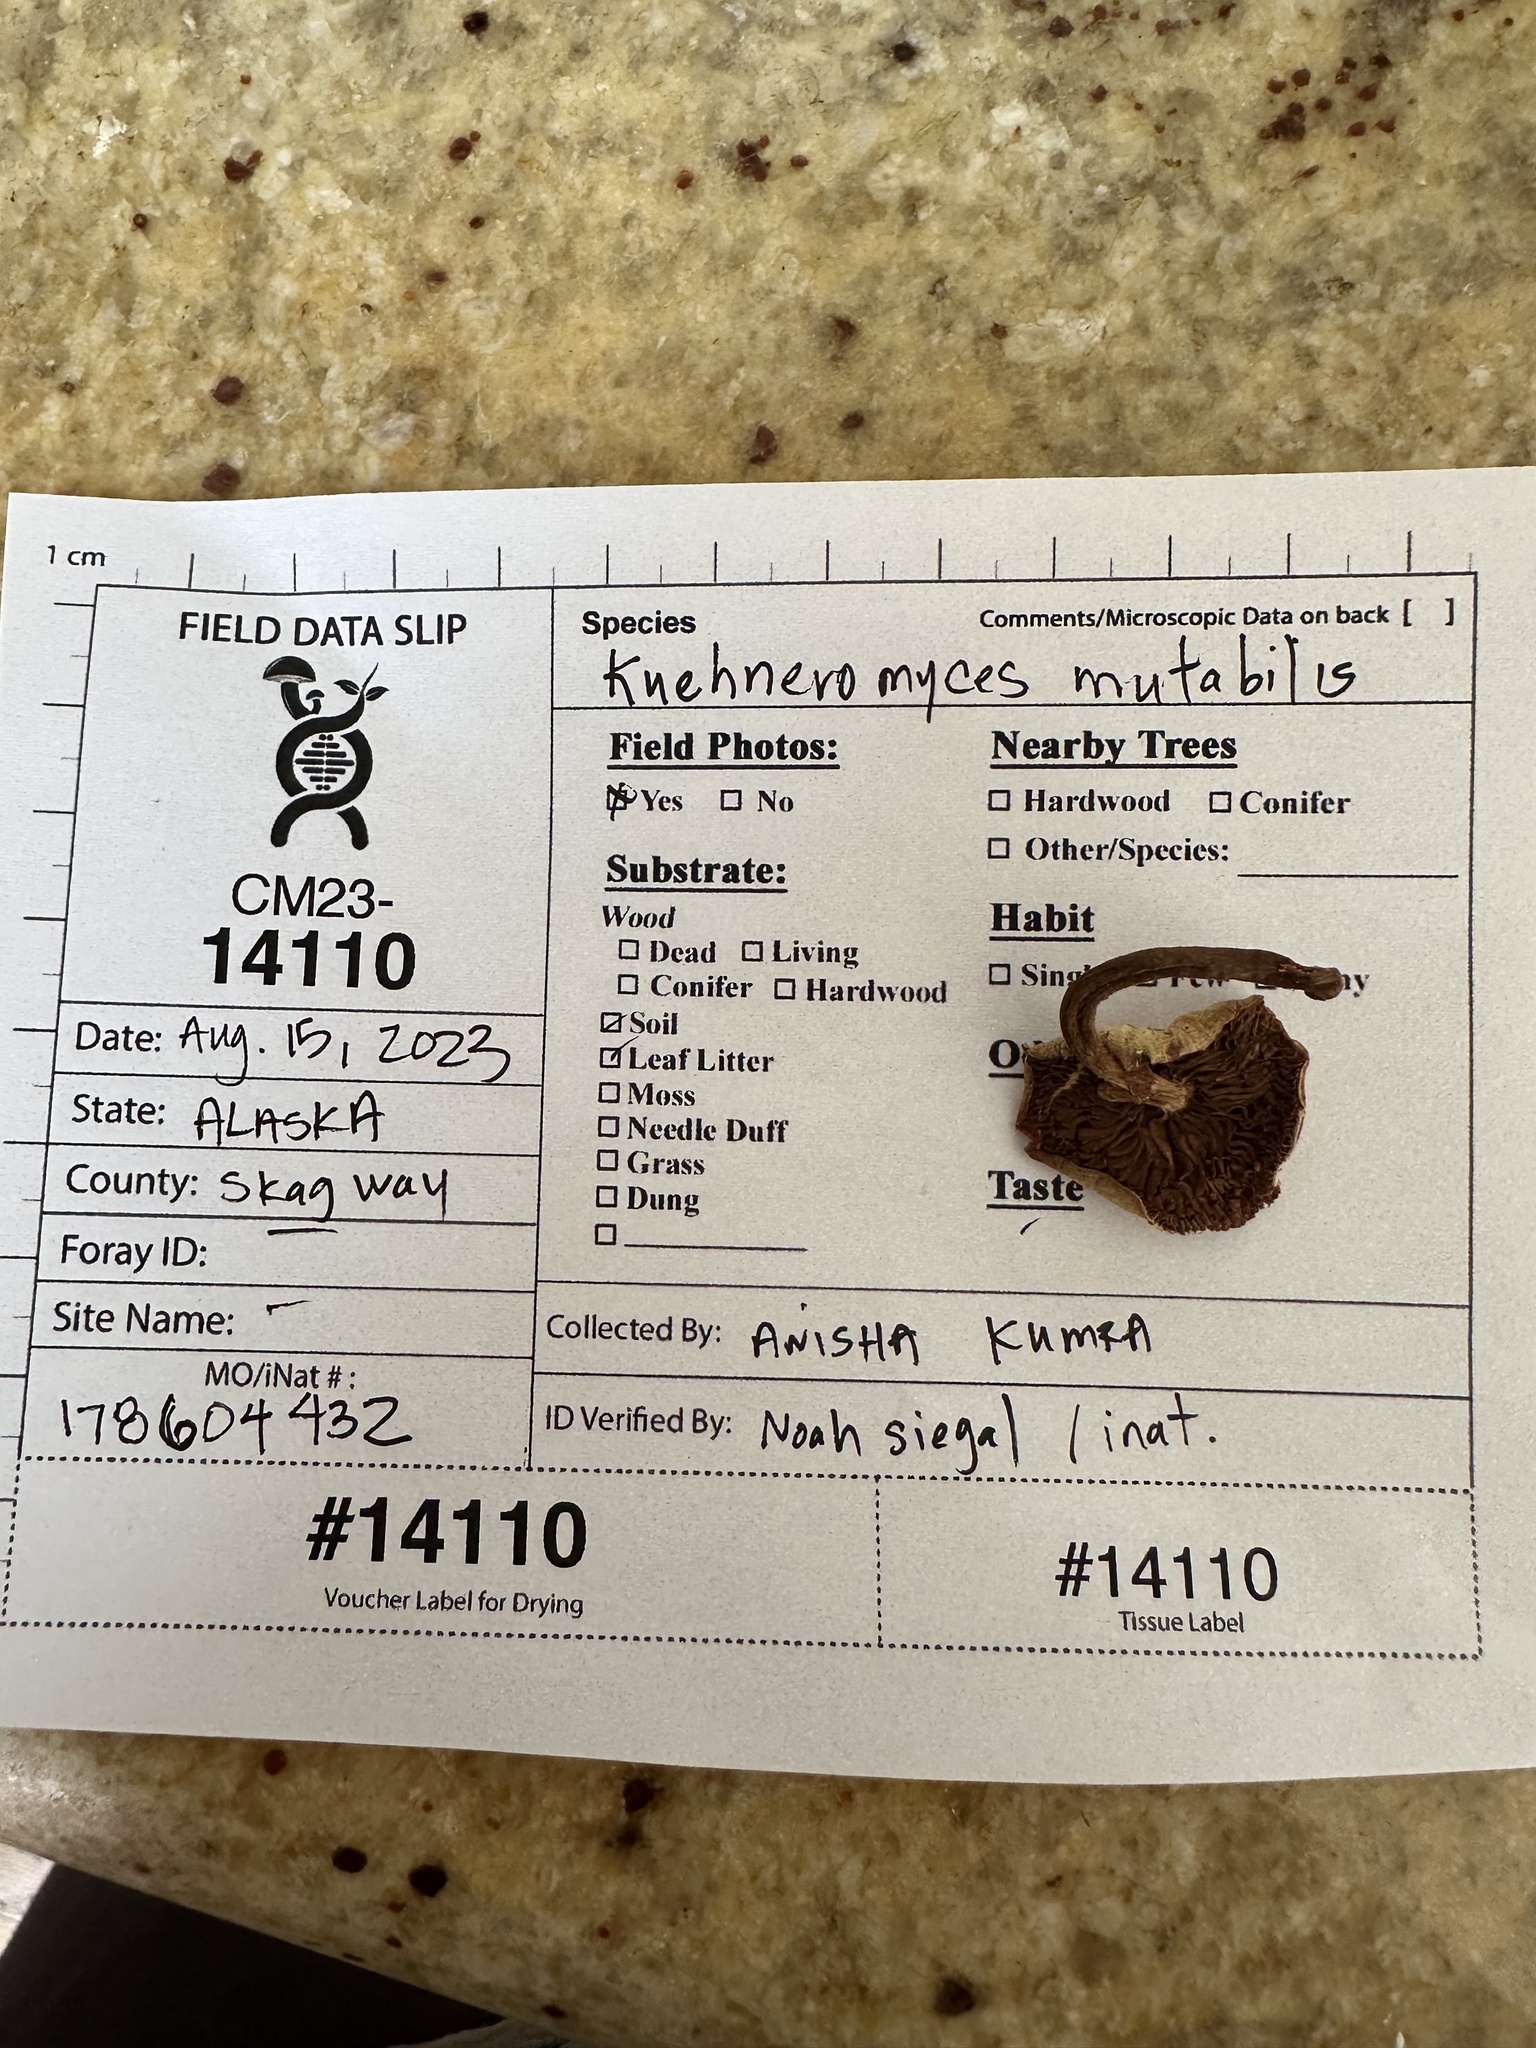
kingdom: Fungi
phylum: Basidiomycota
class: Agaricomycetes
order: Agaricales
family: Strophariaceae
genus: Kuehneromyces
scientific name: Kuehneromyces mutabilis
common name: Sheathed woodtuft
